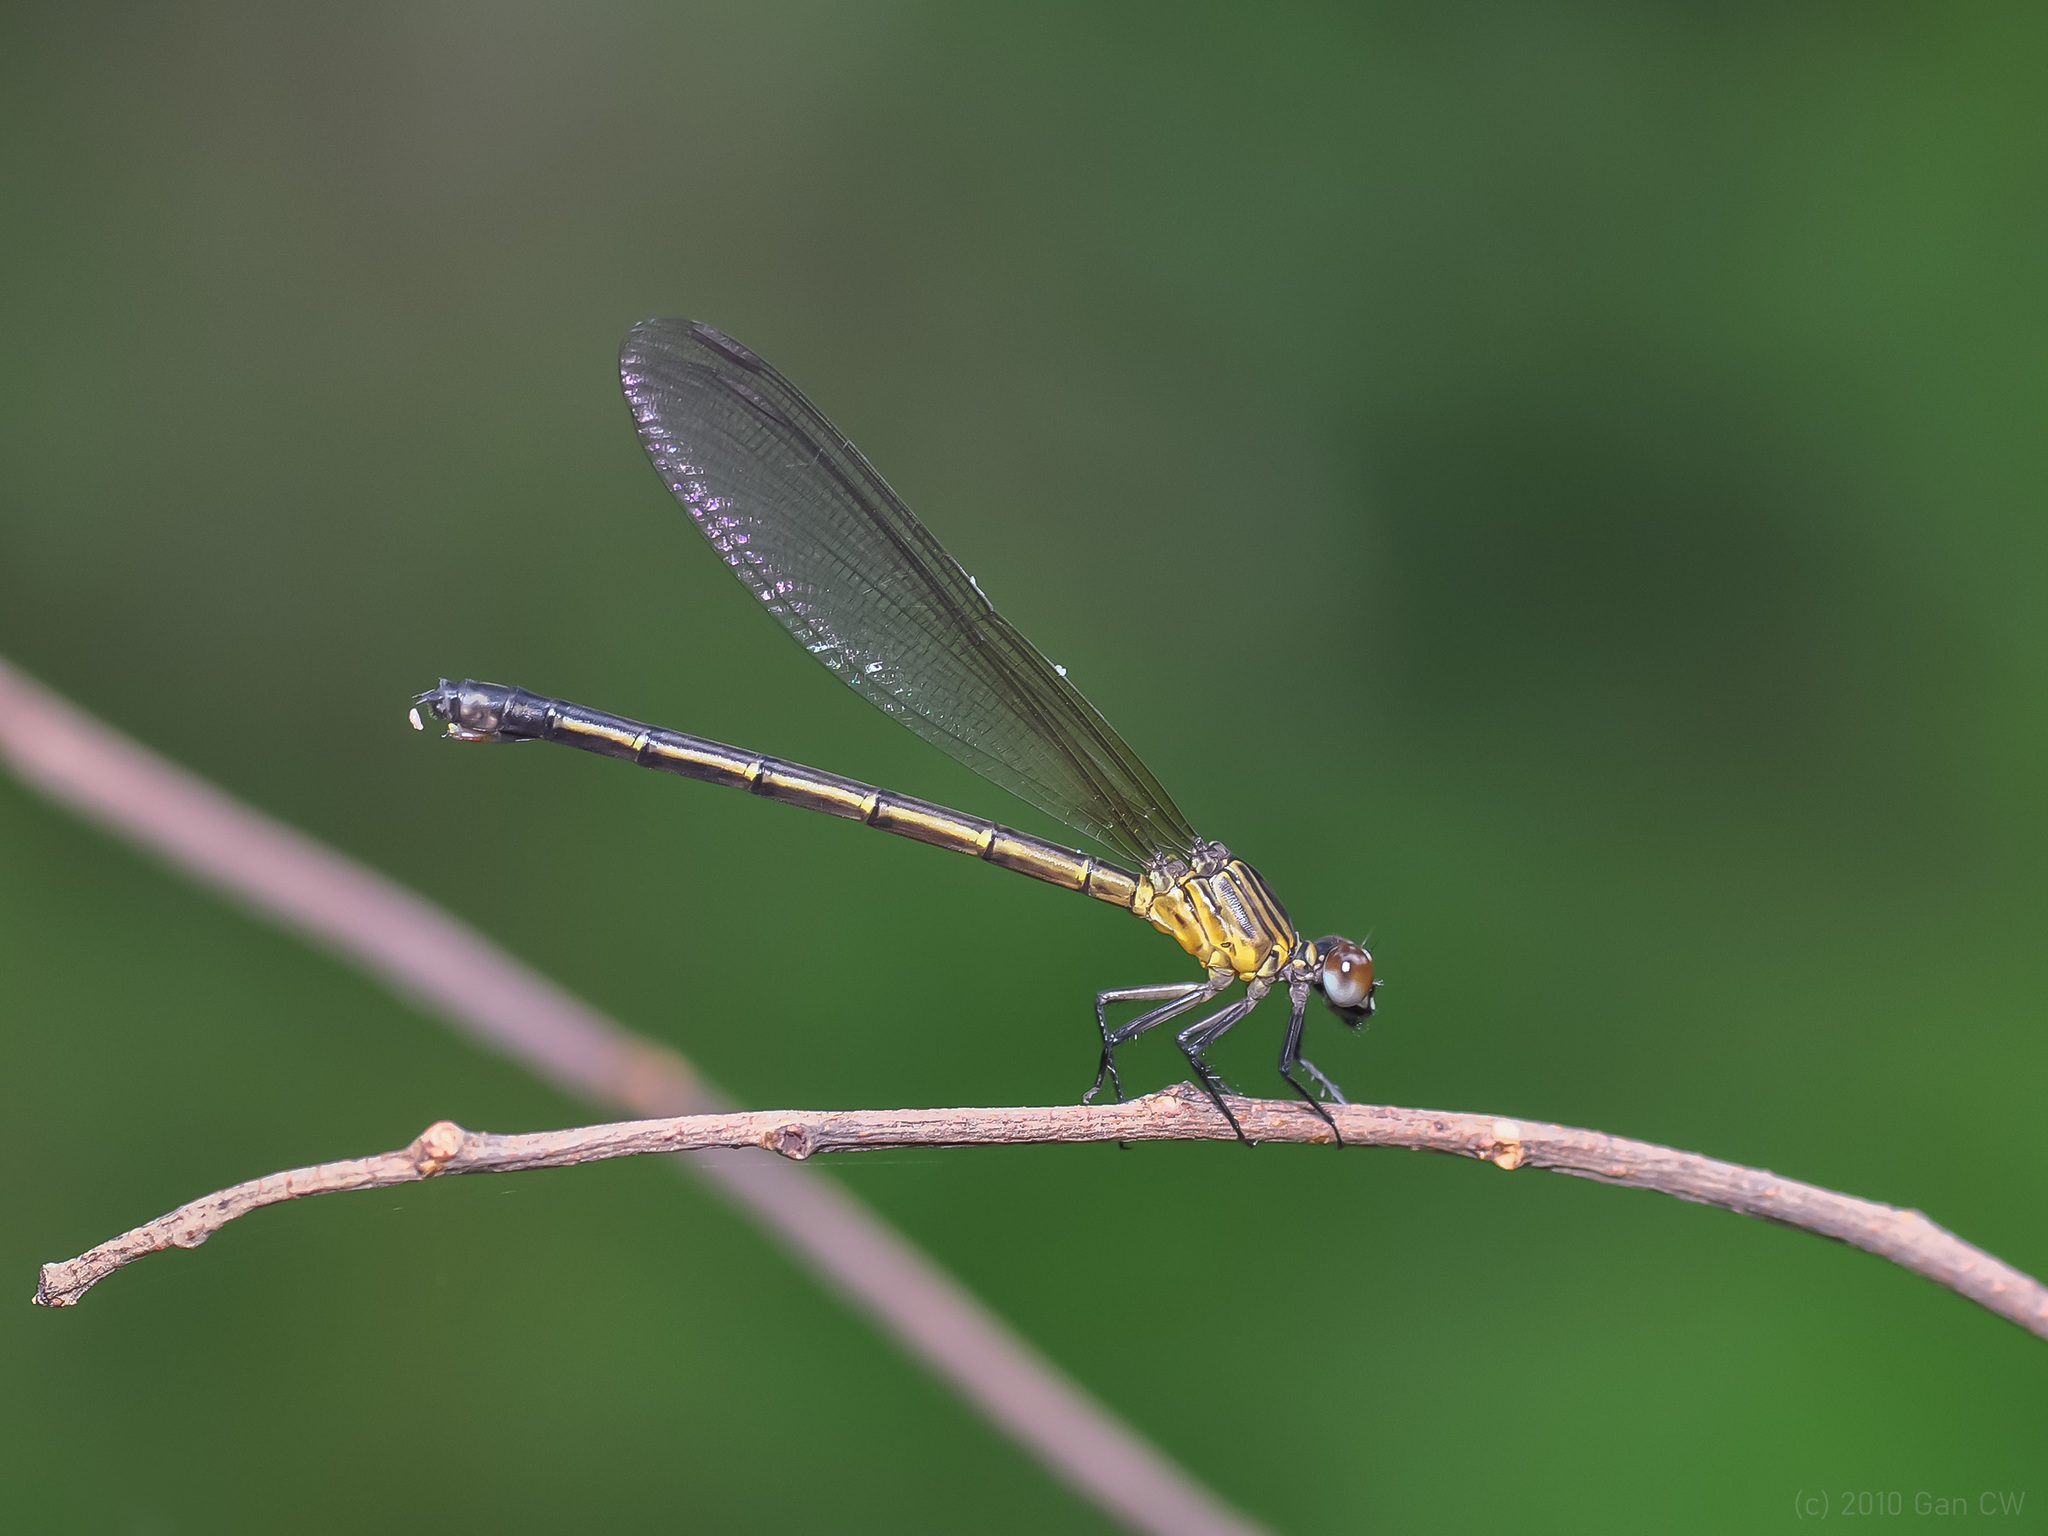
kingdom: Animalia
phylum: Arthropoda
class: Insecta
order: Odonata
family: Euphaeidae
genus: Euphaea
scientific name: Euphaea ochracea
